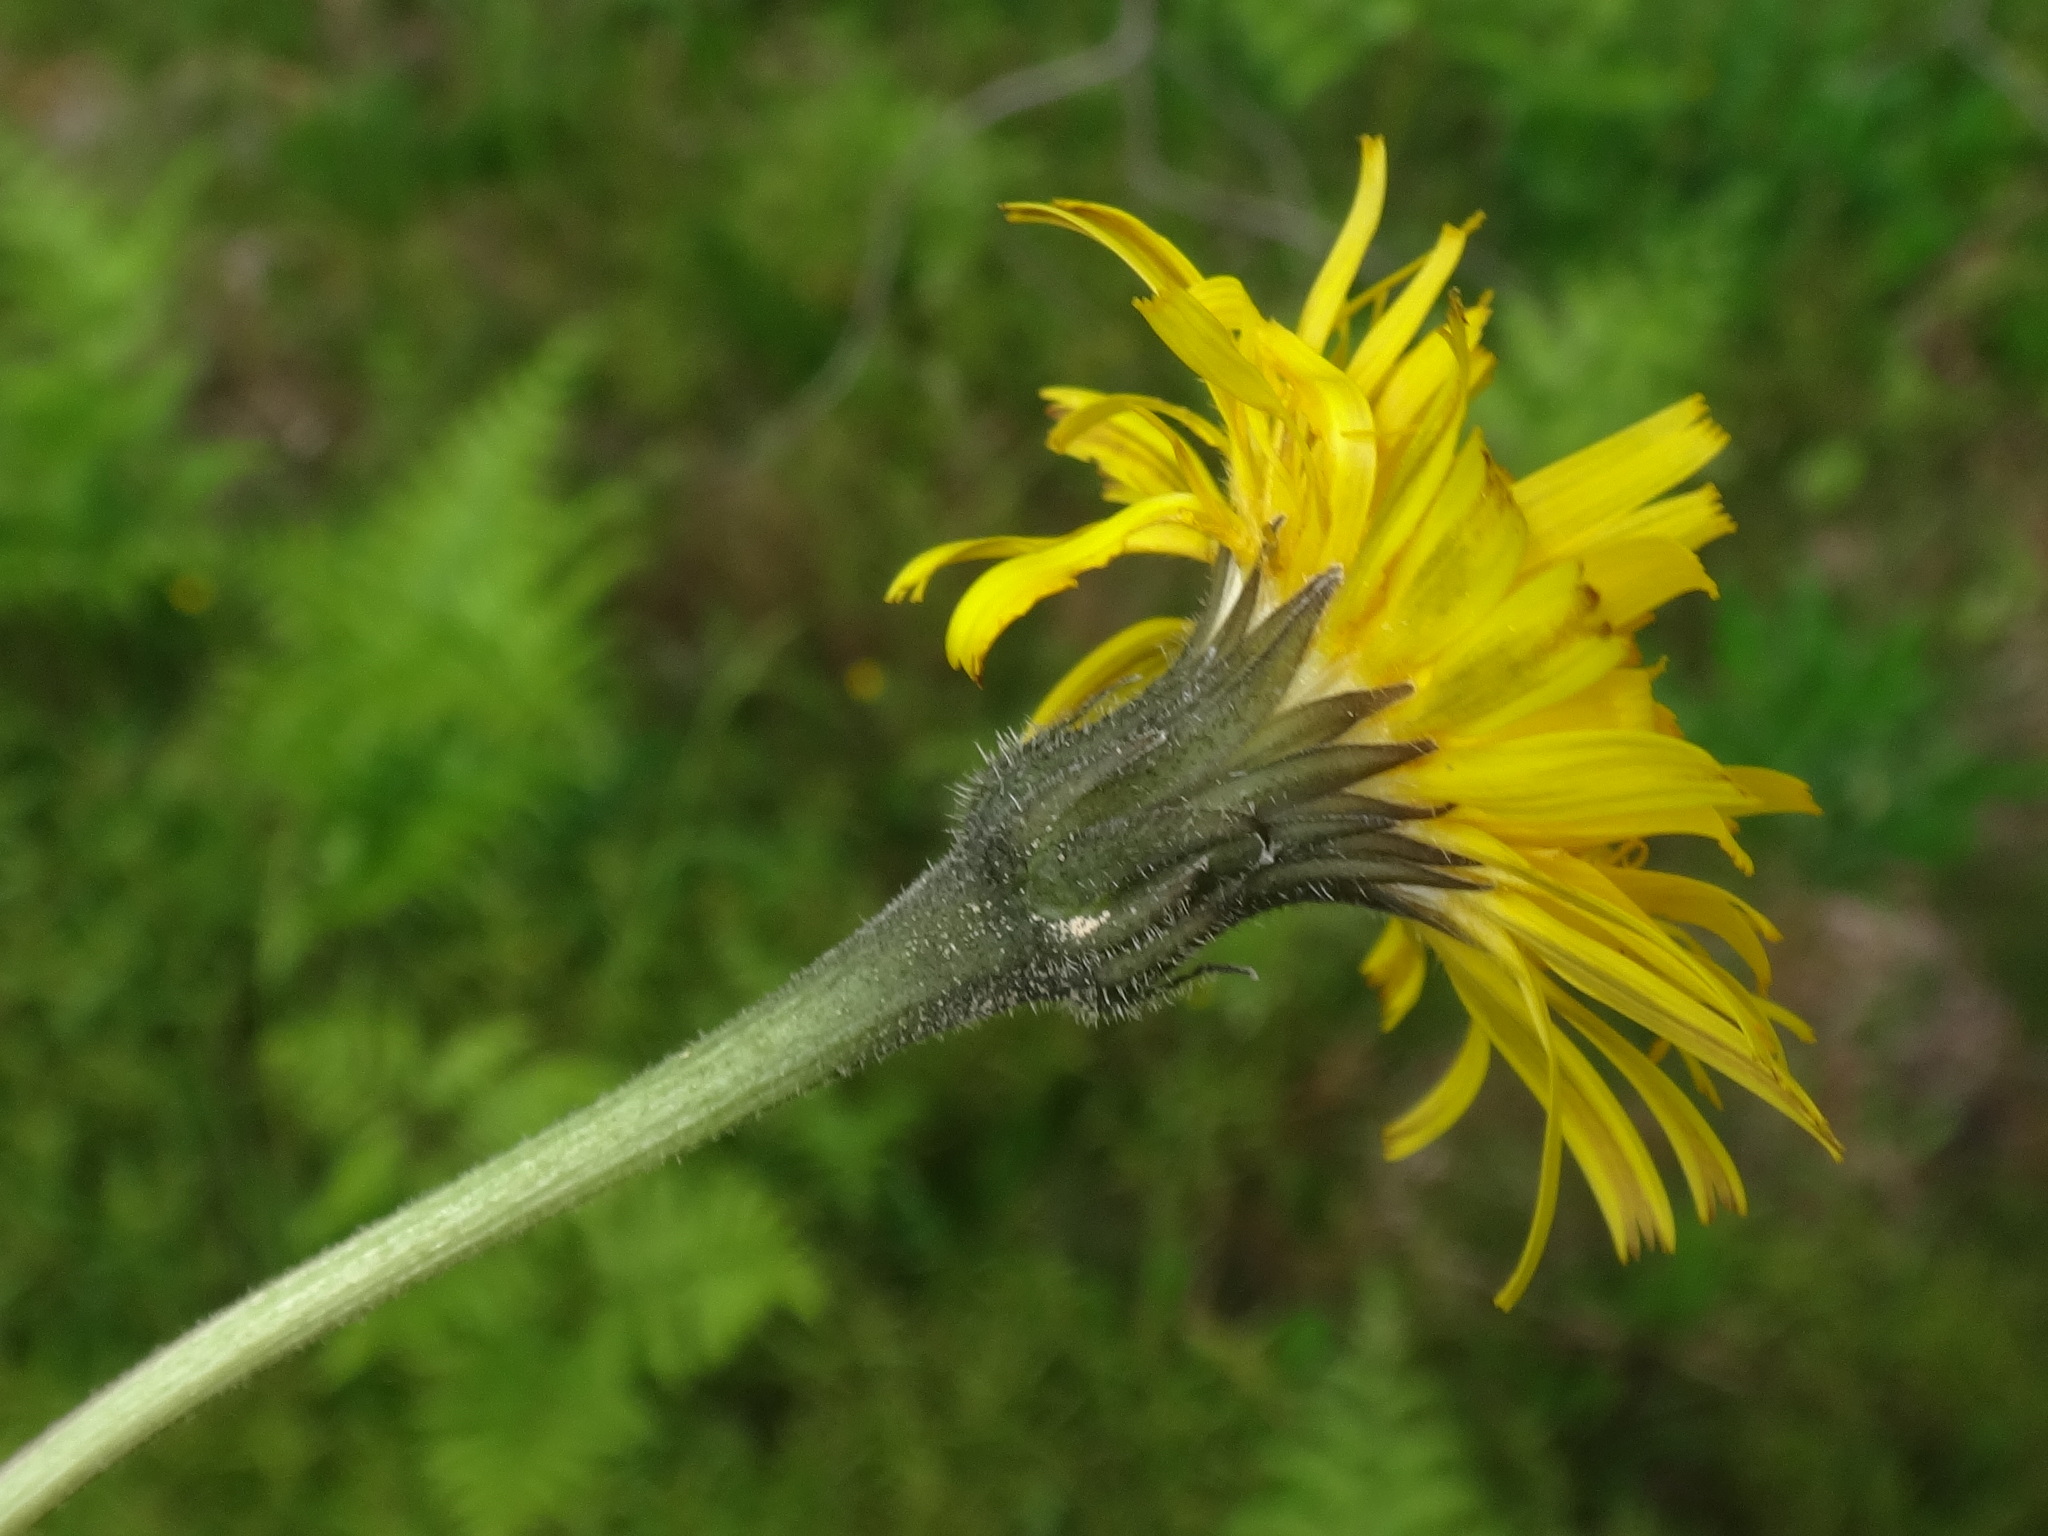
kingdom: Plantae
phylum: Tracheophyta
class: Magnoliopsida
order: Asterales
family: Asteraceae
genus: Leontodon
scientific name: Leontodon hispidus
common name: Rough hawkbit
